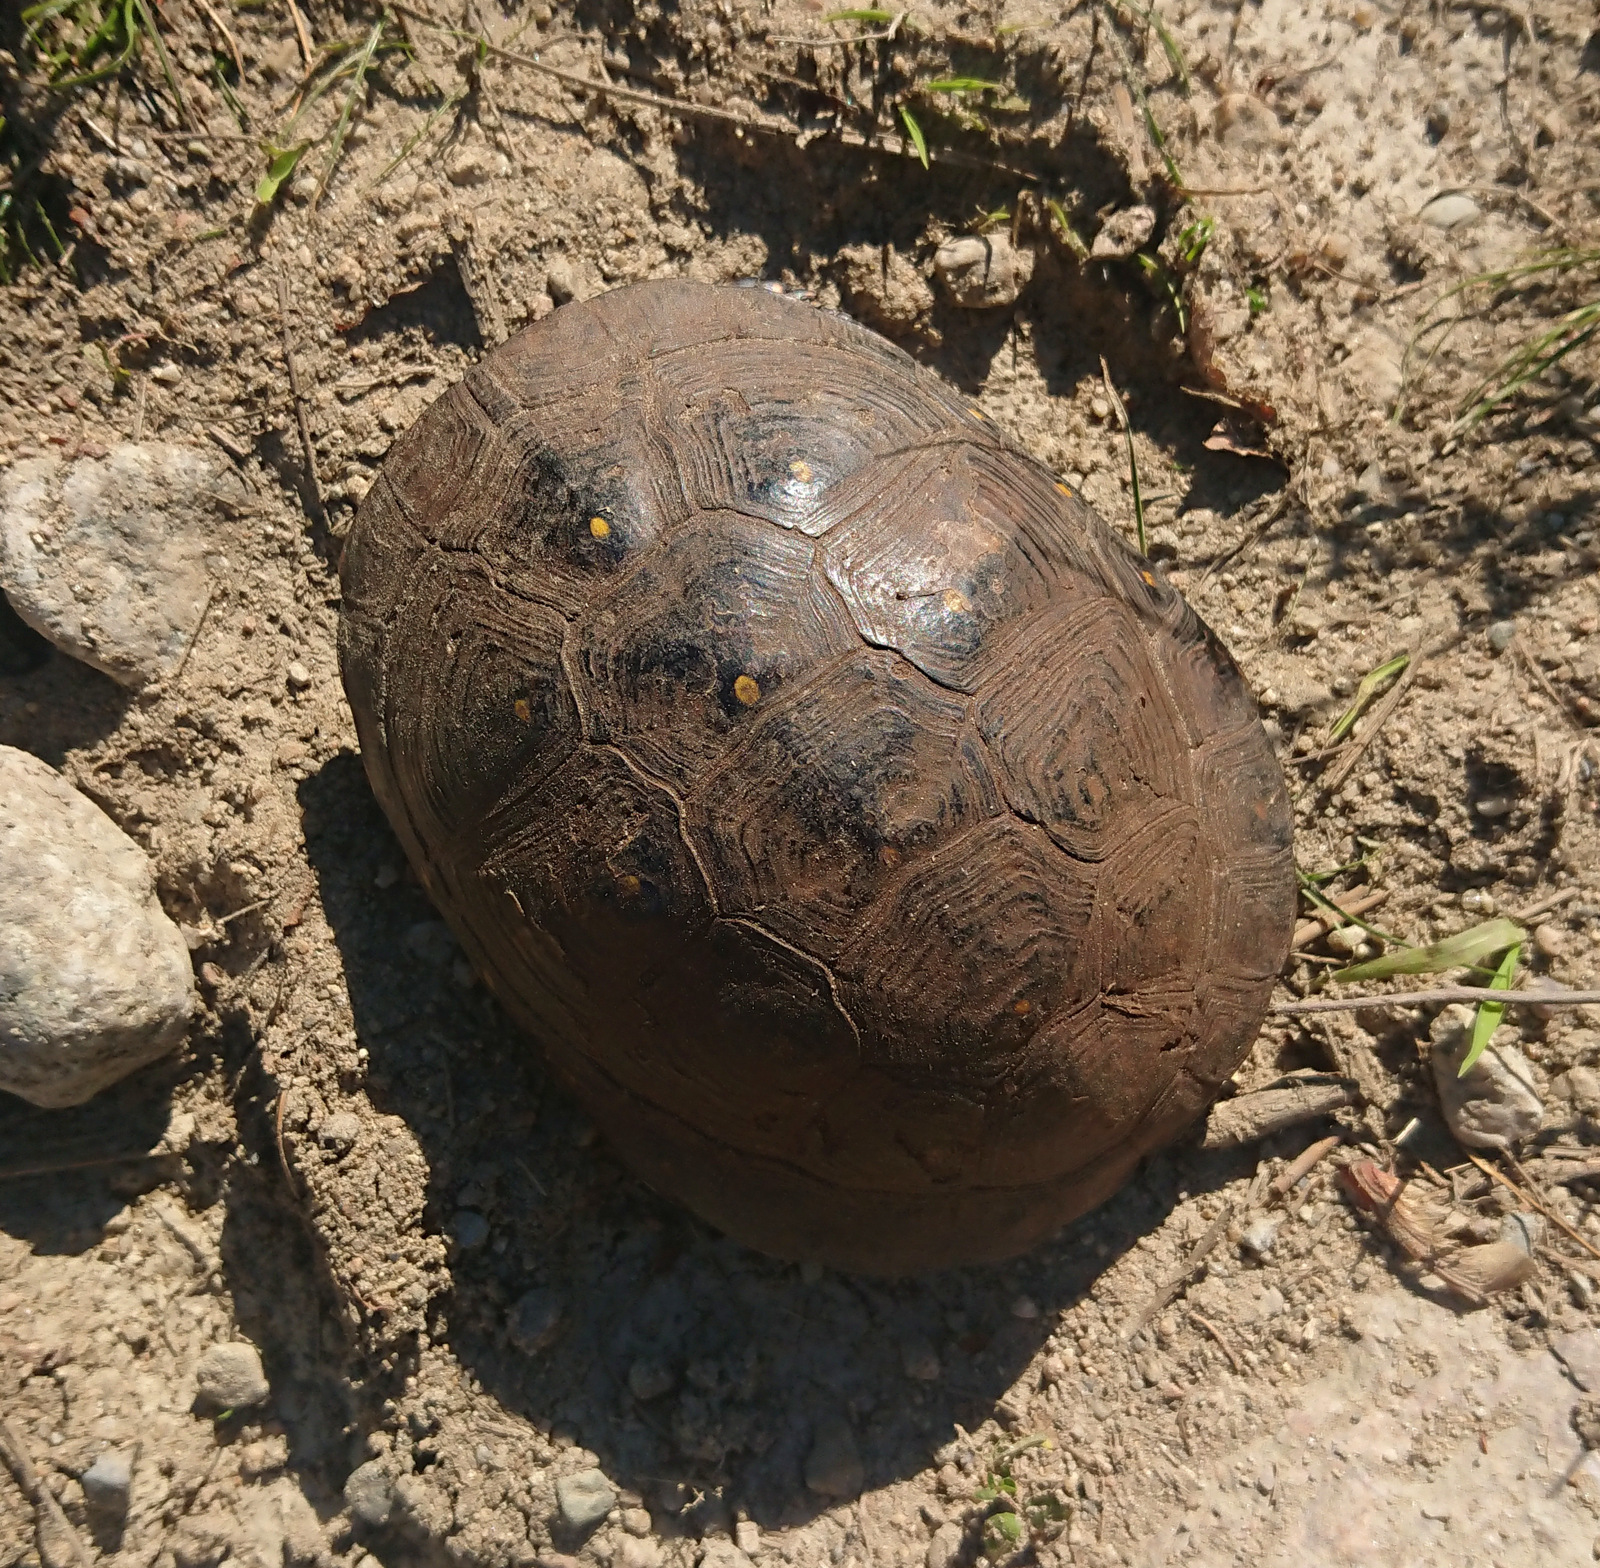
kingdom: Animalia
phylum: Chordata
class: Testudines
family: Emydidae
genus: Clemmys
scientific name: Clemmys guttata
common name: Spotted turtle
